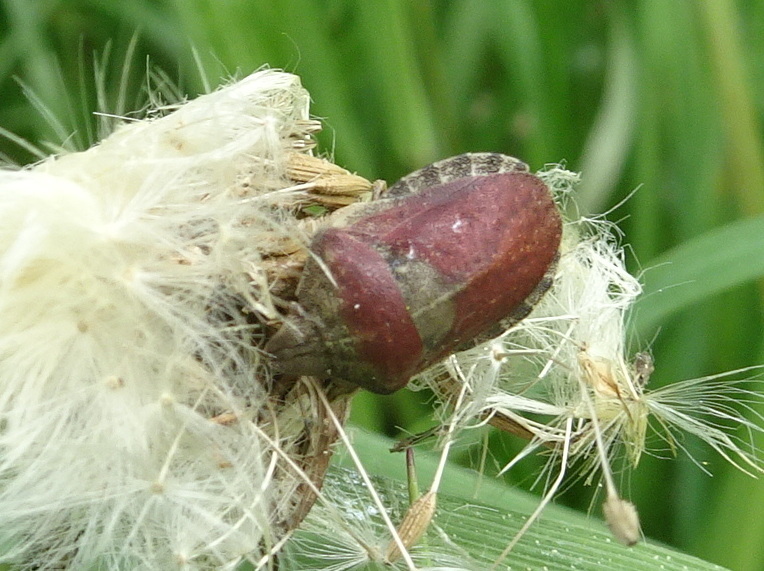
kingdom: Animalia
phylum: Arthropoda
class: Insecta
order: Hemiptera
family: Scutelleridae
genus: Eurygaster
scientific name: Eurygaster testudinaria
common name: Tortoise bug
